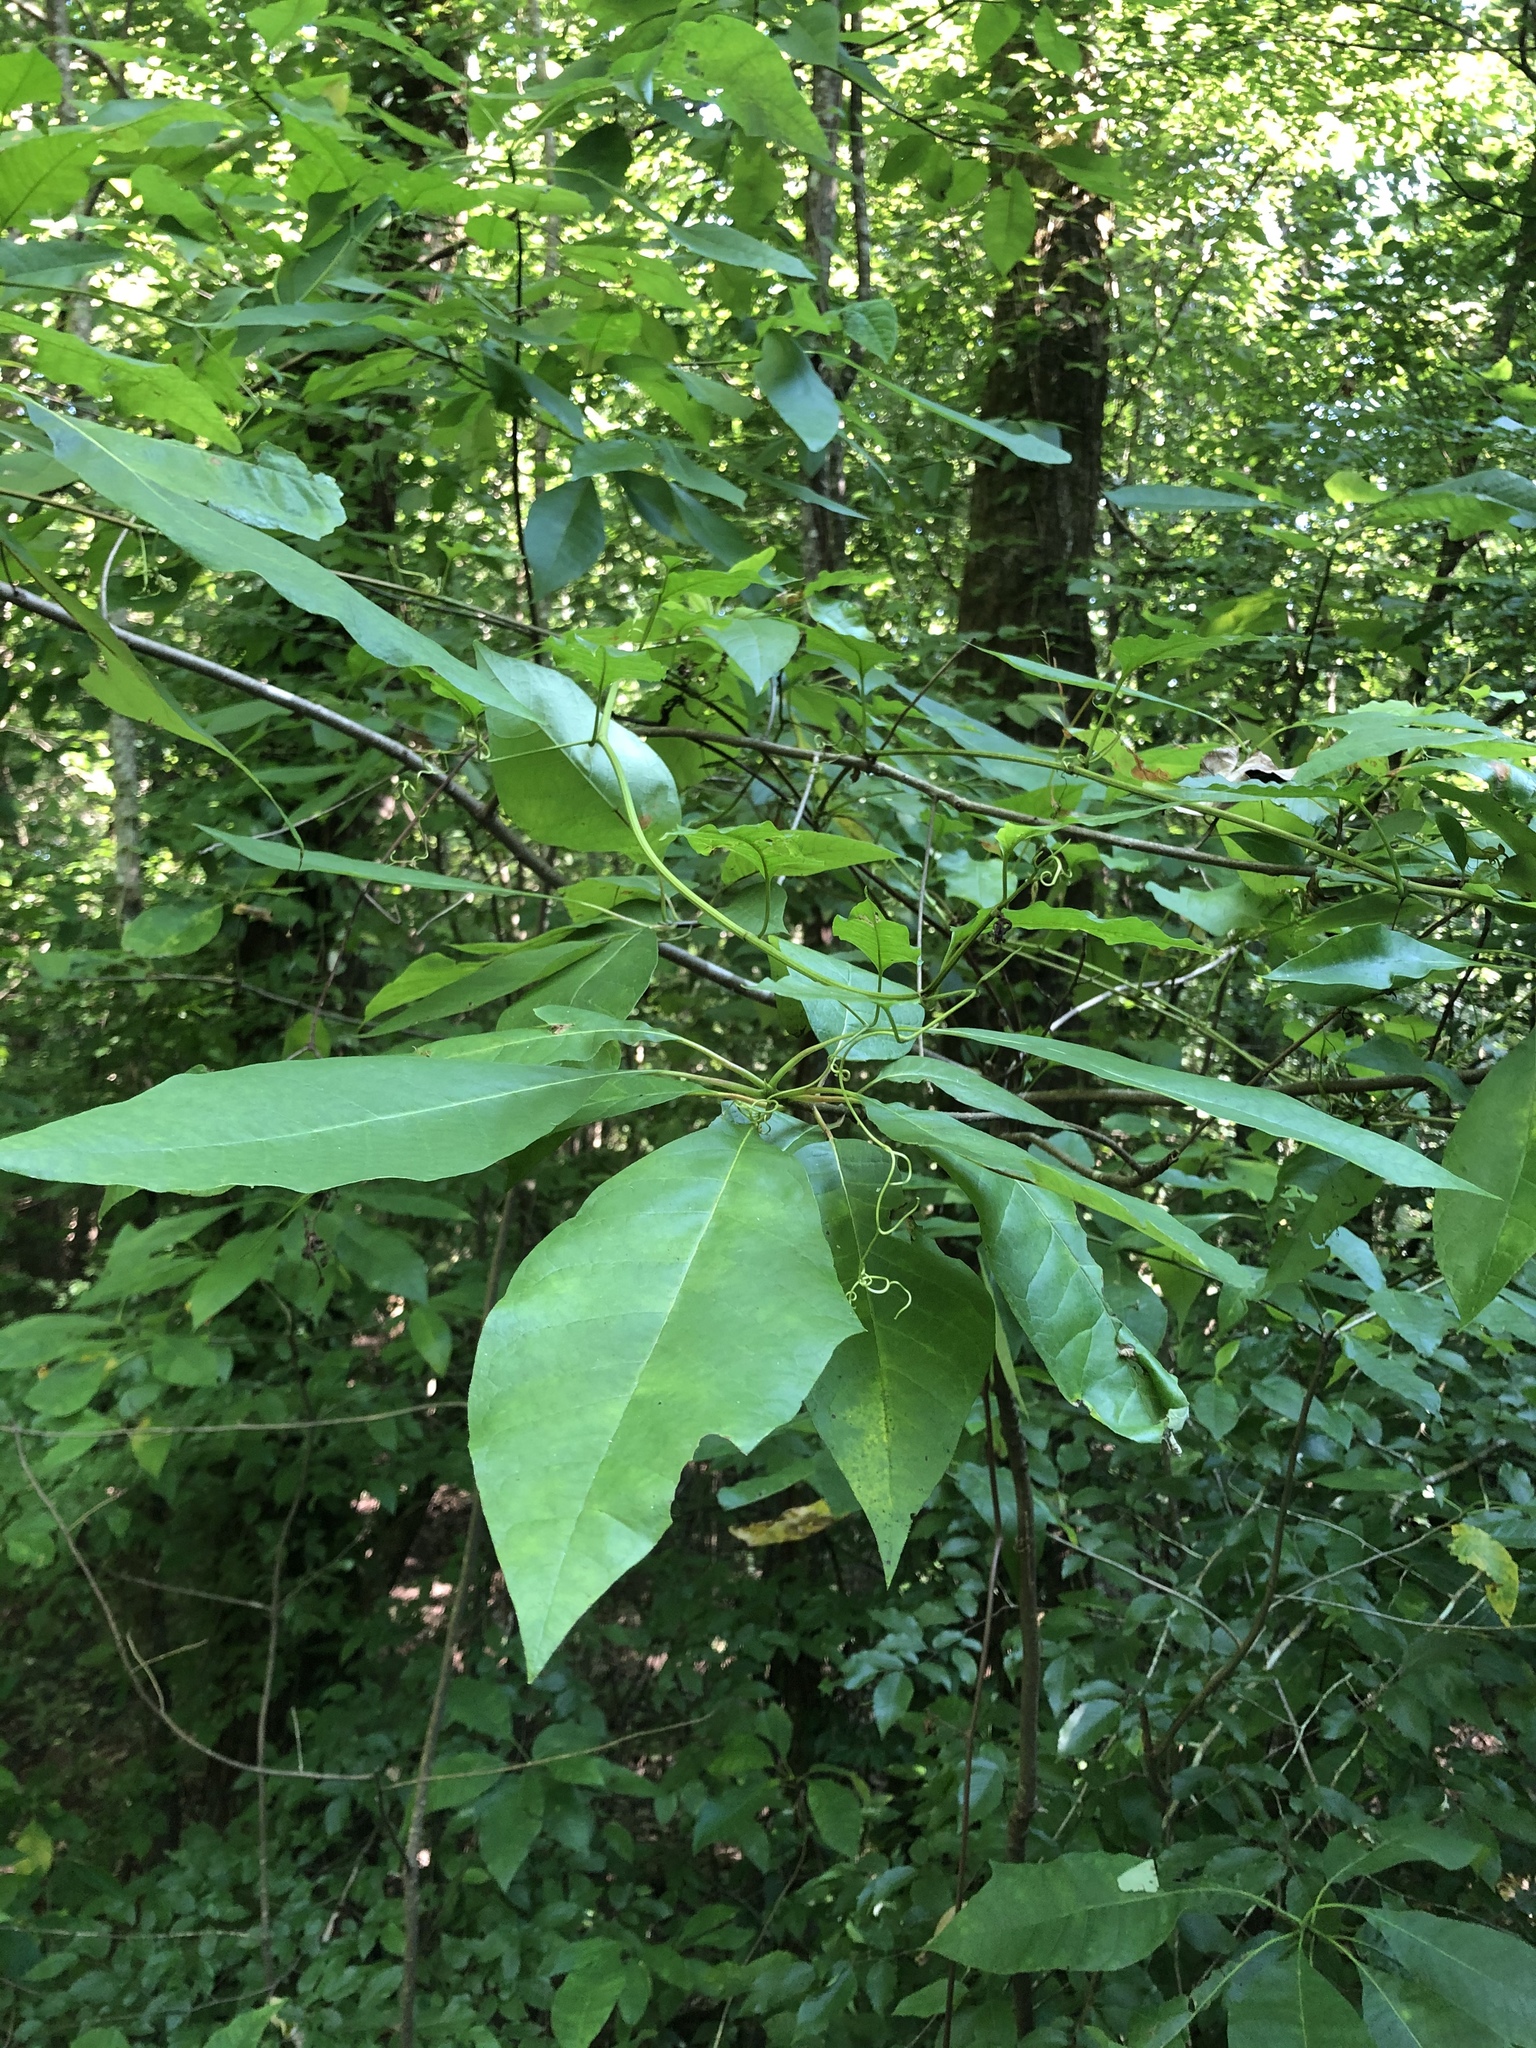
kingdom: Plantae
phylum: Tracheophyta
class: Magnoliopsida
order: Cornales
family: Nyssaceae
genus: Nyssa
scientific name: Nyssa aquatica
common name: Swamp tupelo
